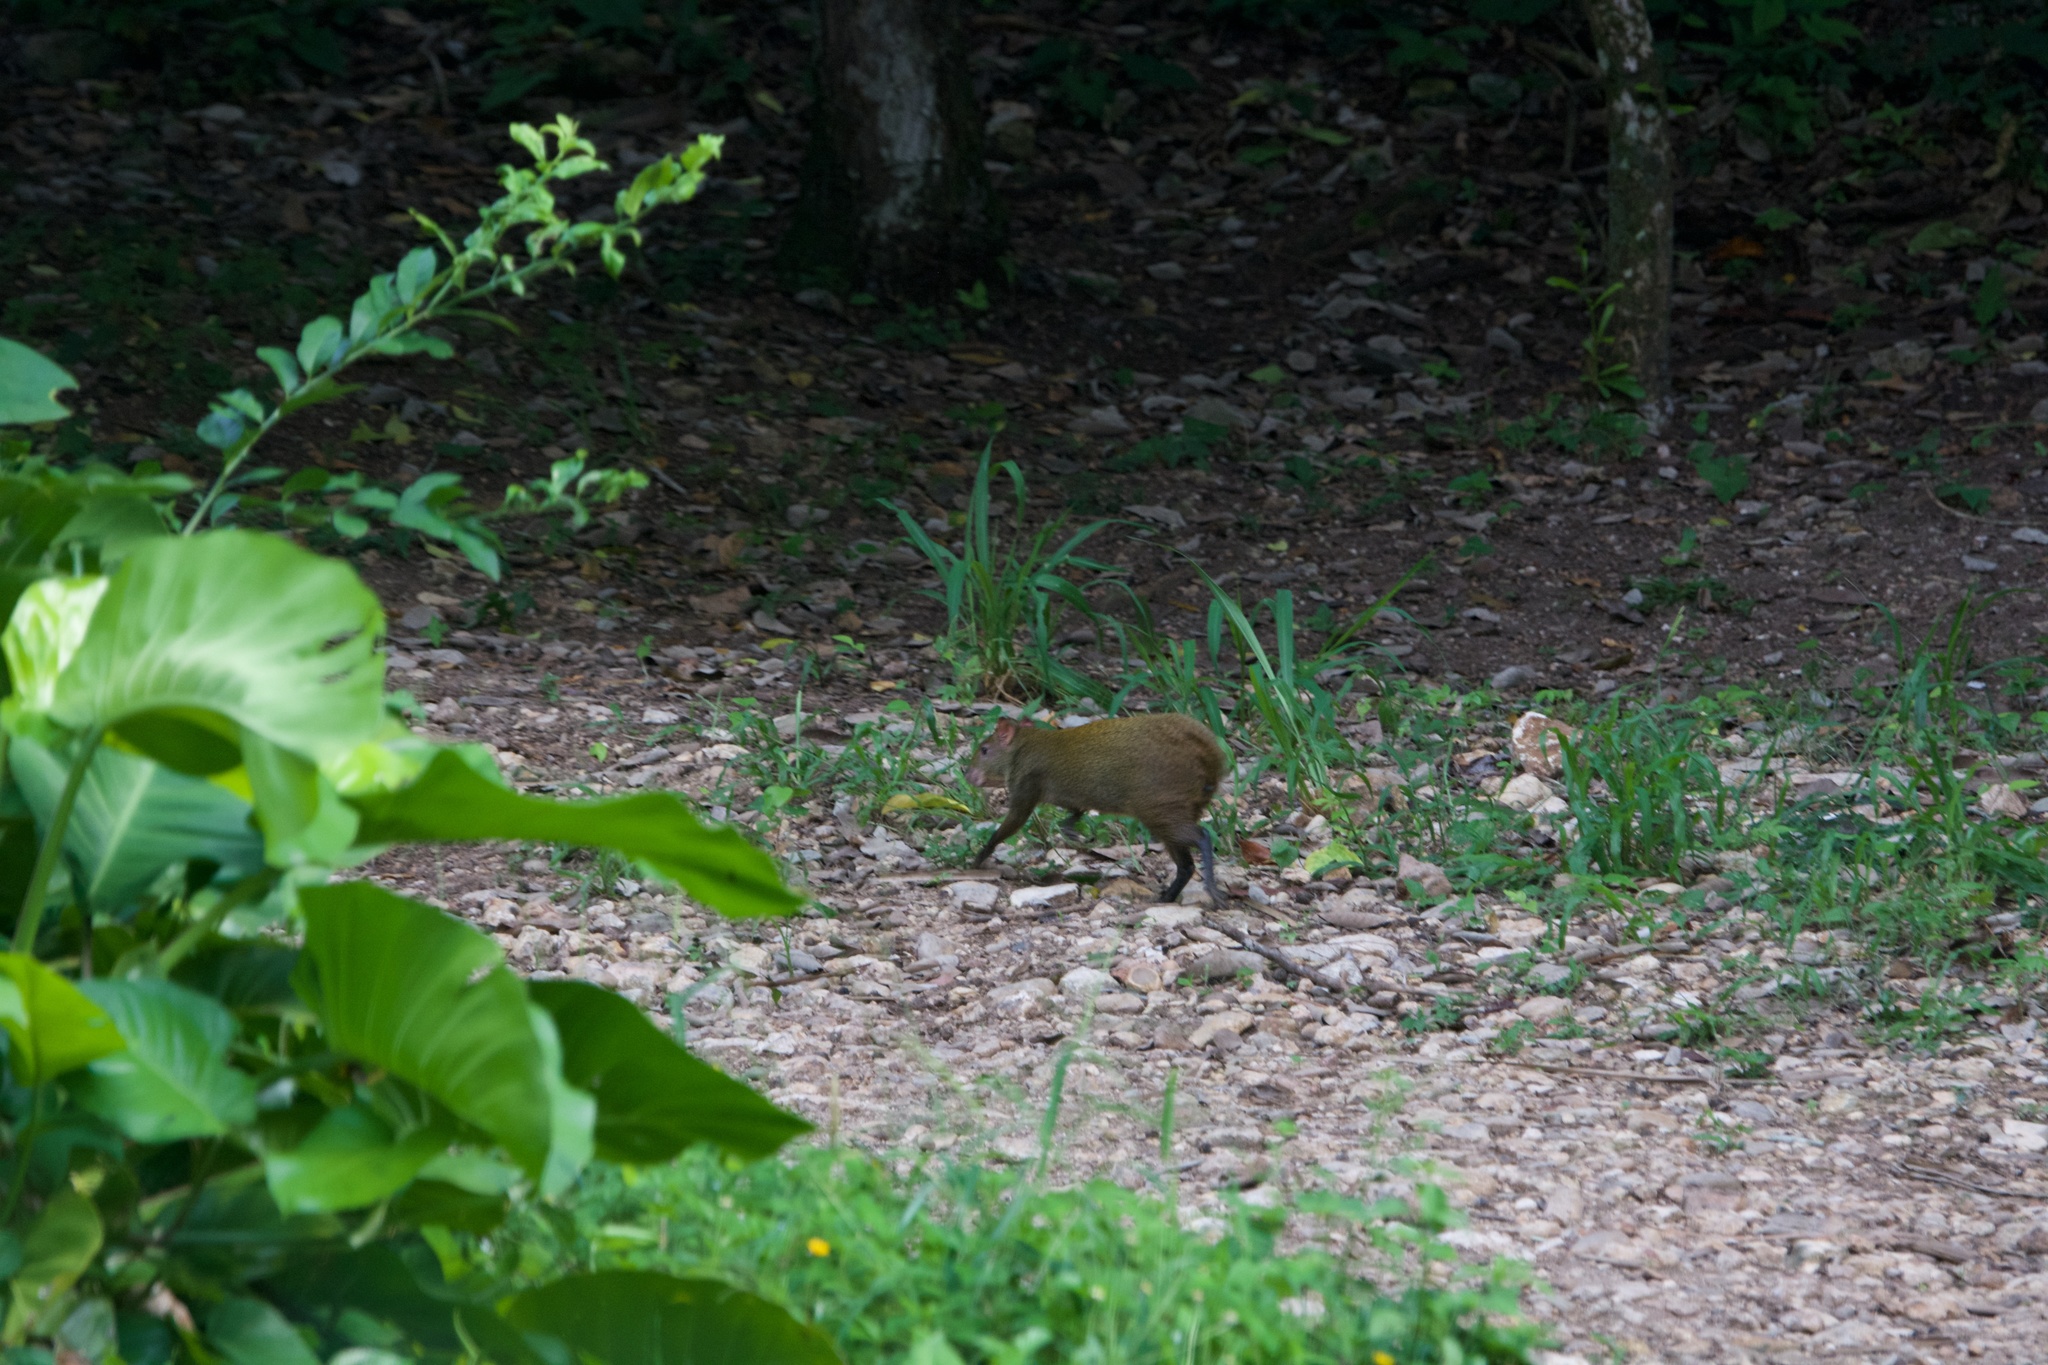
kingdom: Animalia
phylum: Chordata
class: Mammalia
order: Rodentia
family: Dasyproctidae
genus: Dasyprocta
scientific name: Dasyprocta punctata
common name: Central american agouti
